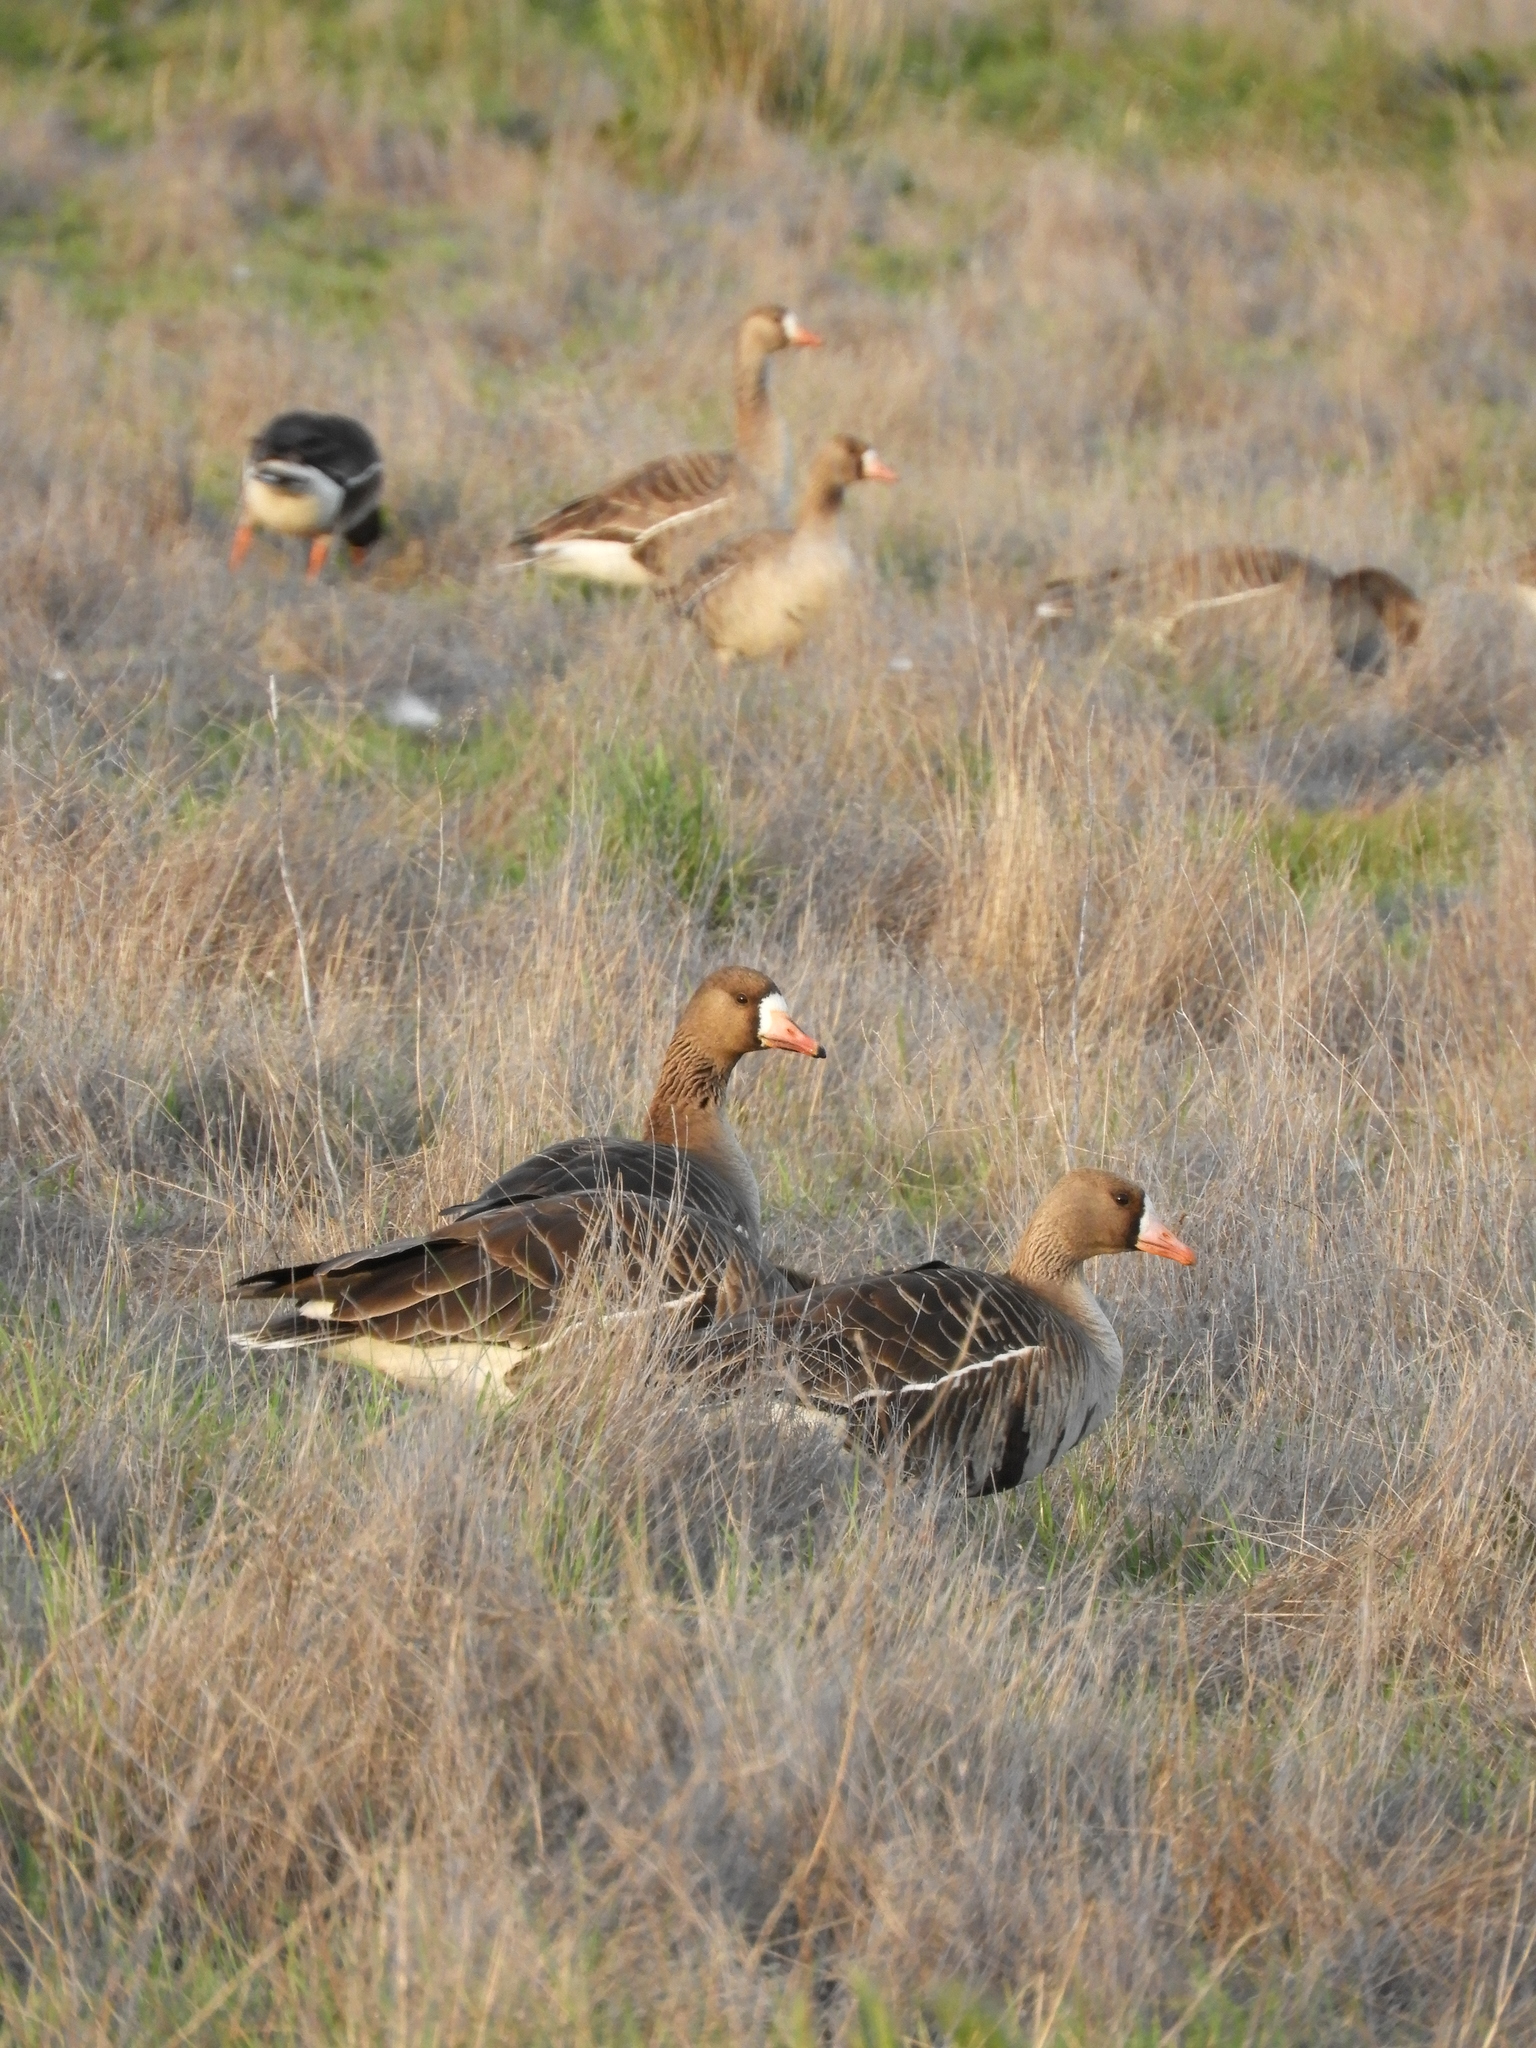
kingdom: Animalia
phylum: Chordata
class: Aves
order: Anseriformes
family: Anatidae
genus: Anser
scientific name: Anser albifrons
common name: Greater white-fronted goose
